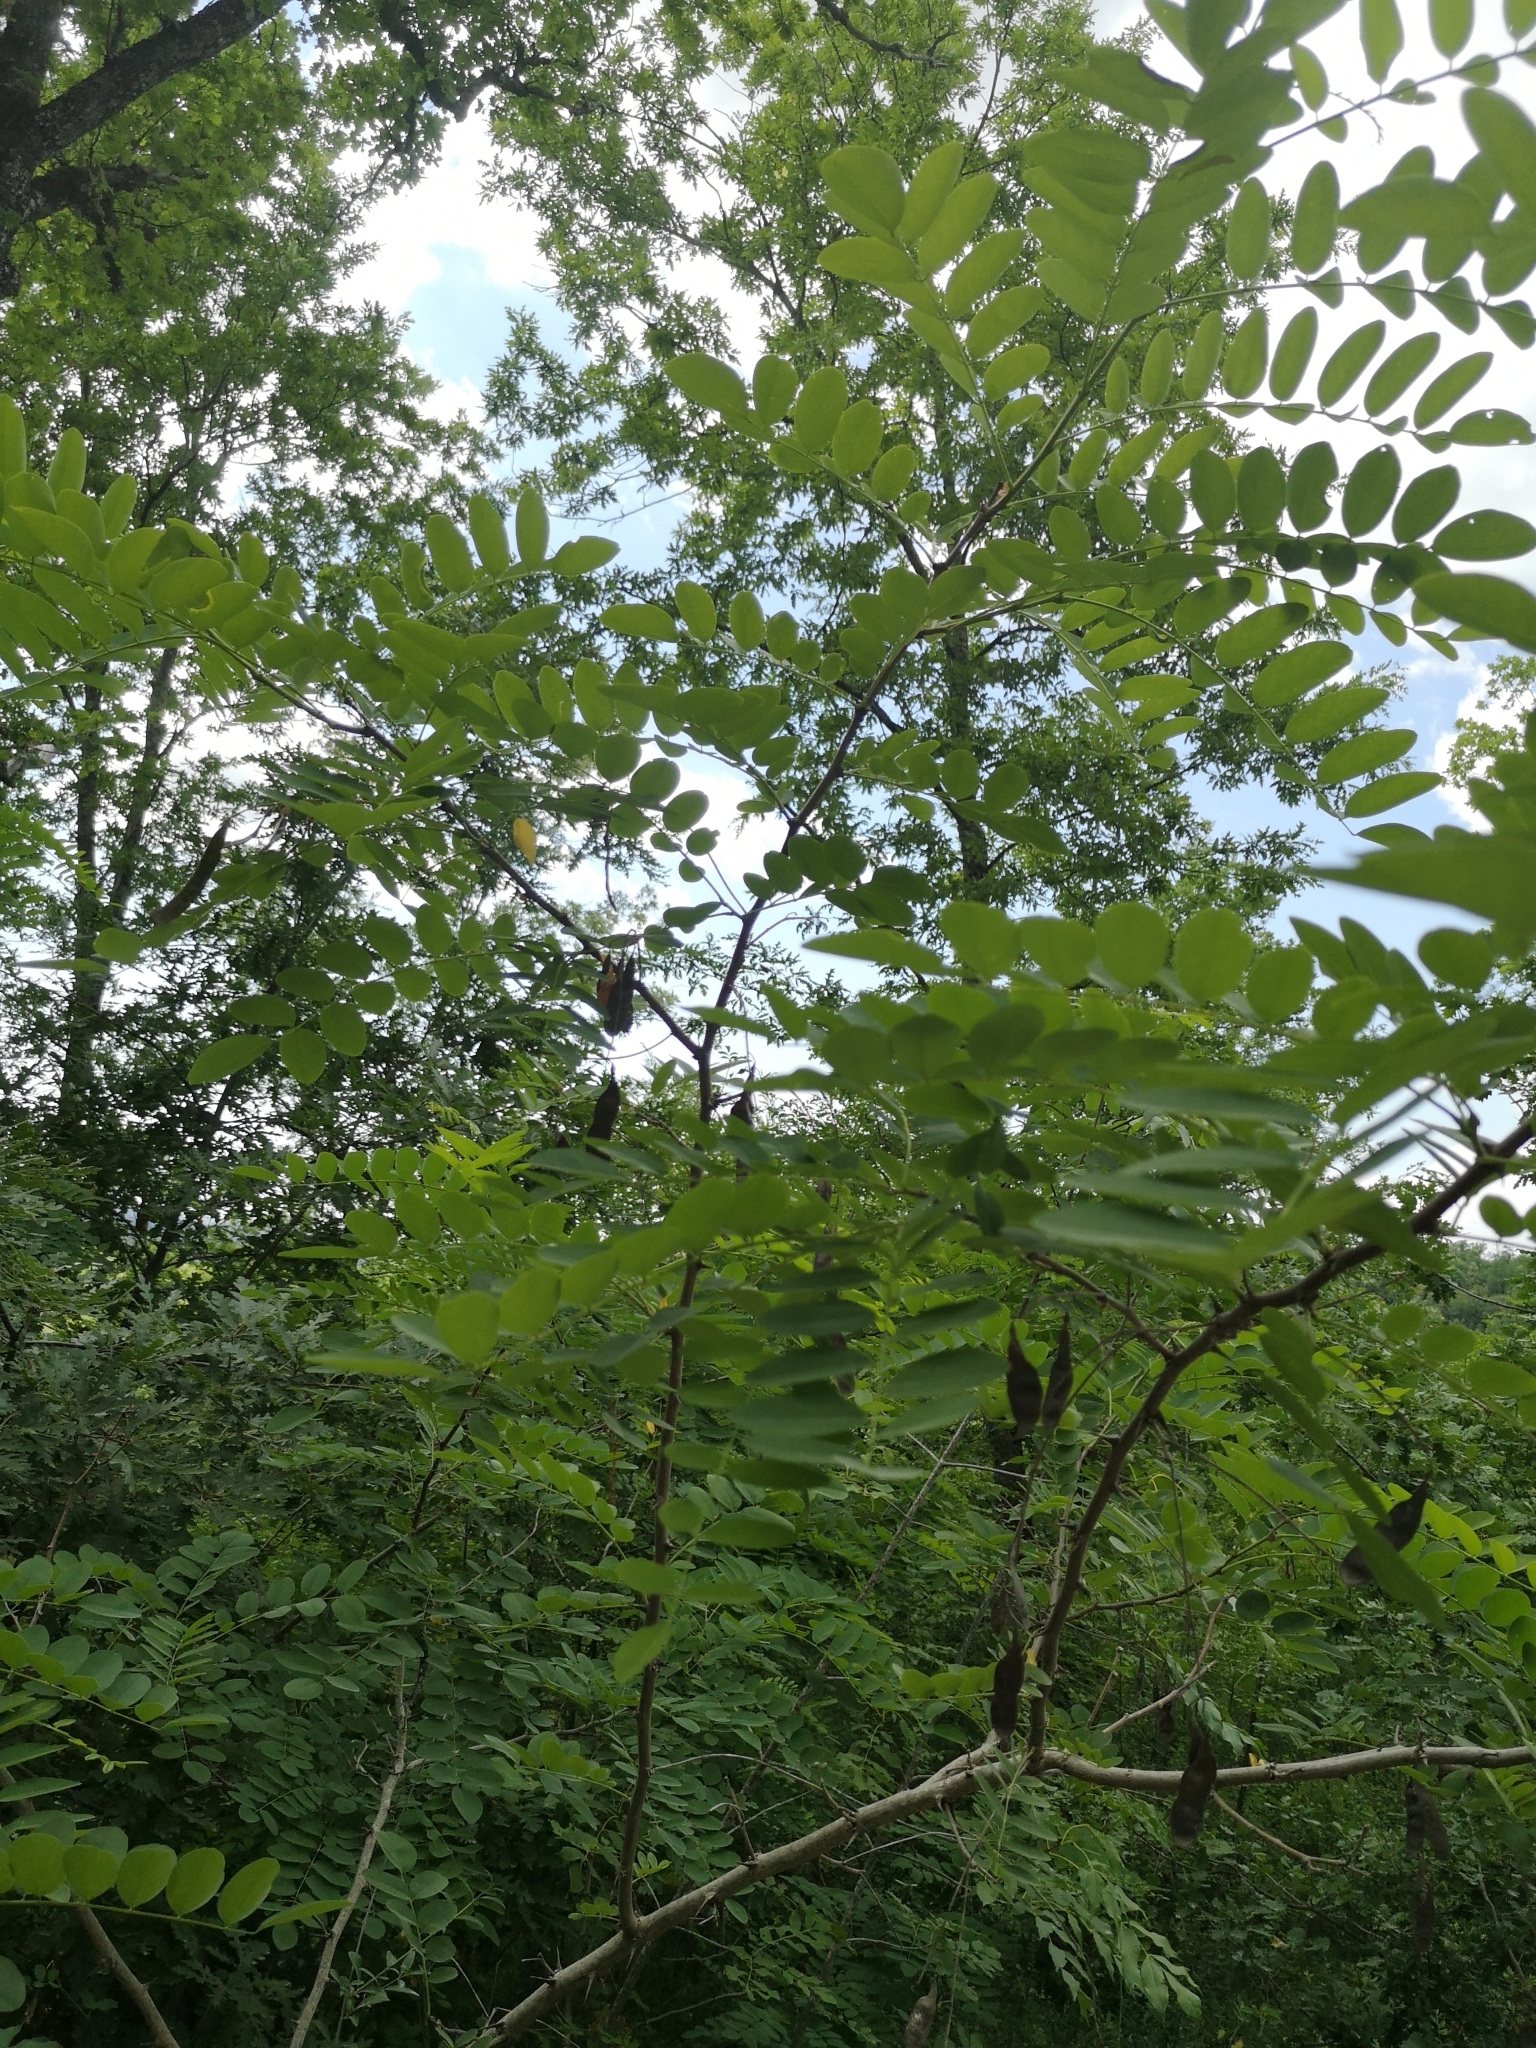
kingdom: Plantae
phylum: Tracheophyta
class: Magnoliopsida
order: Fabales
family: Fabaceae
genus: Robinia
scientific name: Robinia pseudoacacia
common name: Black locust
